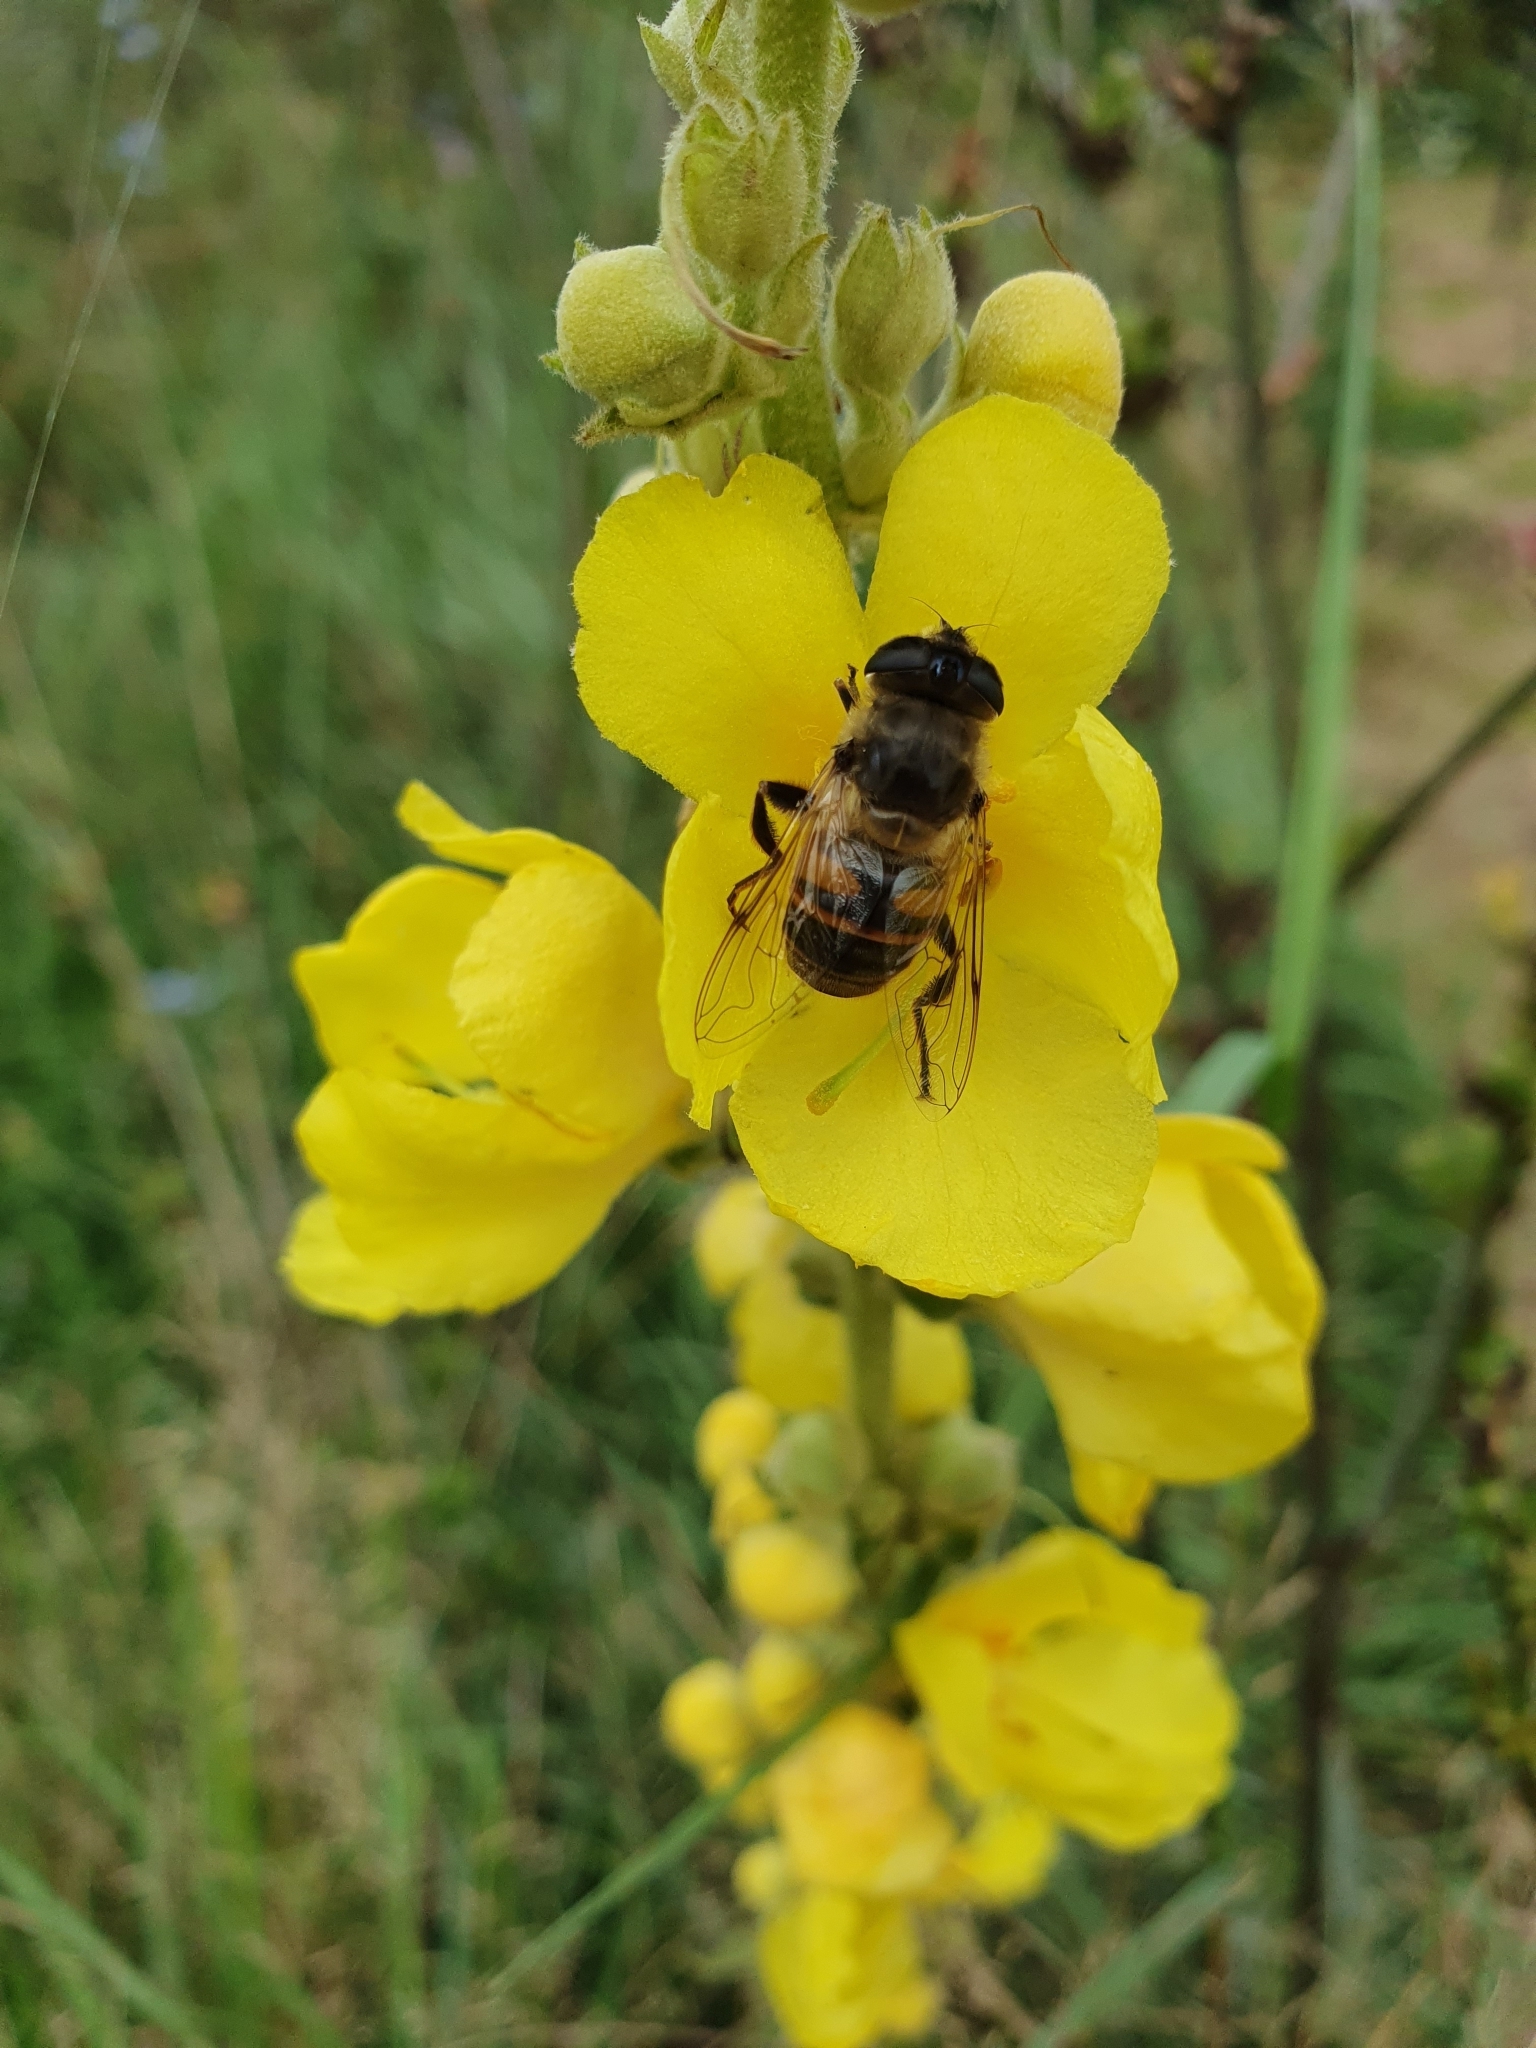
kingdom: Animalia
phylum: Arthropoda
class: Insecta
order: Diptera
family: Syrphidae
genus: Eristalis
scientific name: Eristalis tenax
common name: Drone fly
